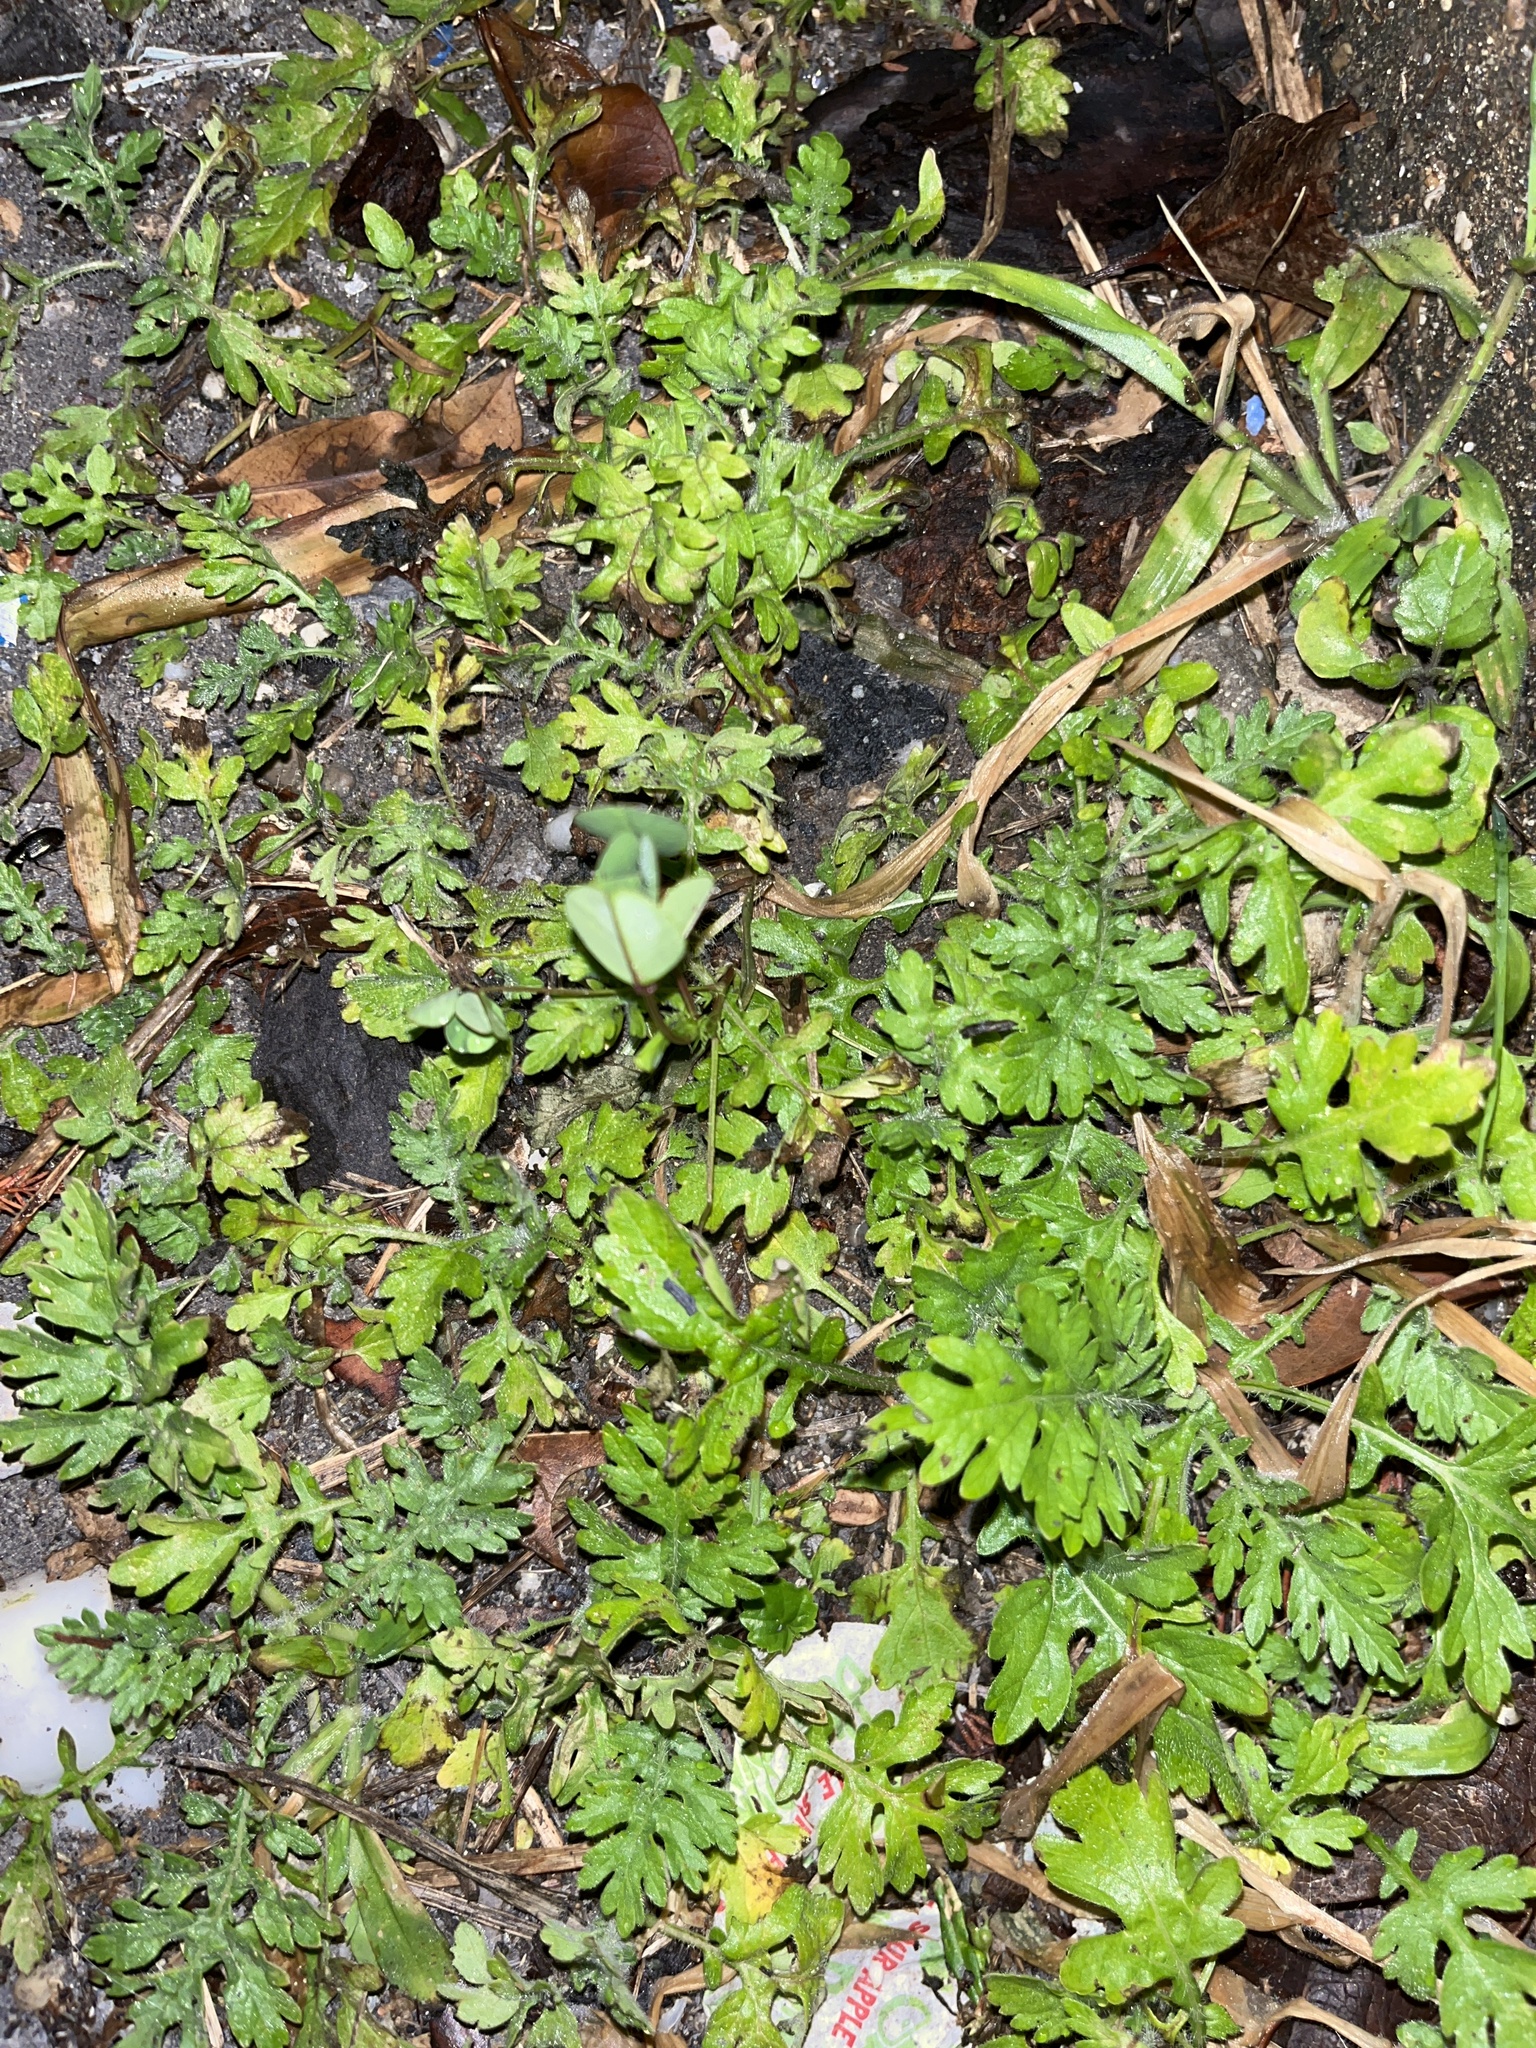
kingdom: Plantae
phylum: Tracheophyta
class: Magnoliopsida
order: Asterales
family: Asteraceae
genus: Parthenium
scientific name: Parthenium hysterophorus
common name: Santa maria feverfew
